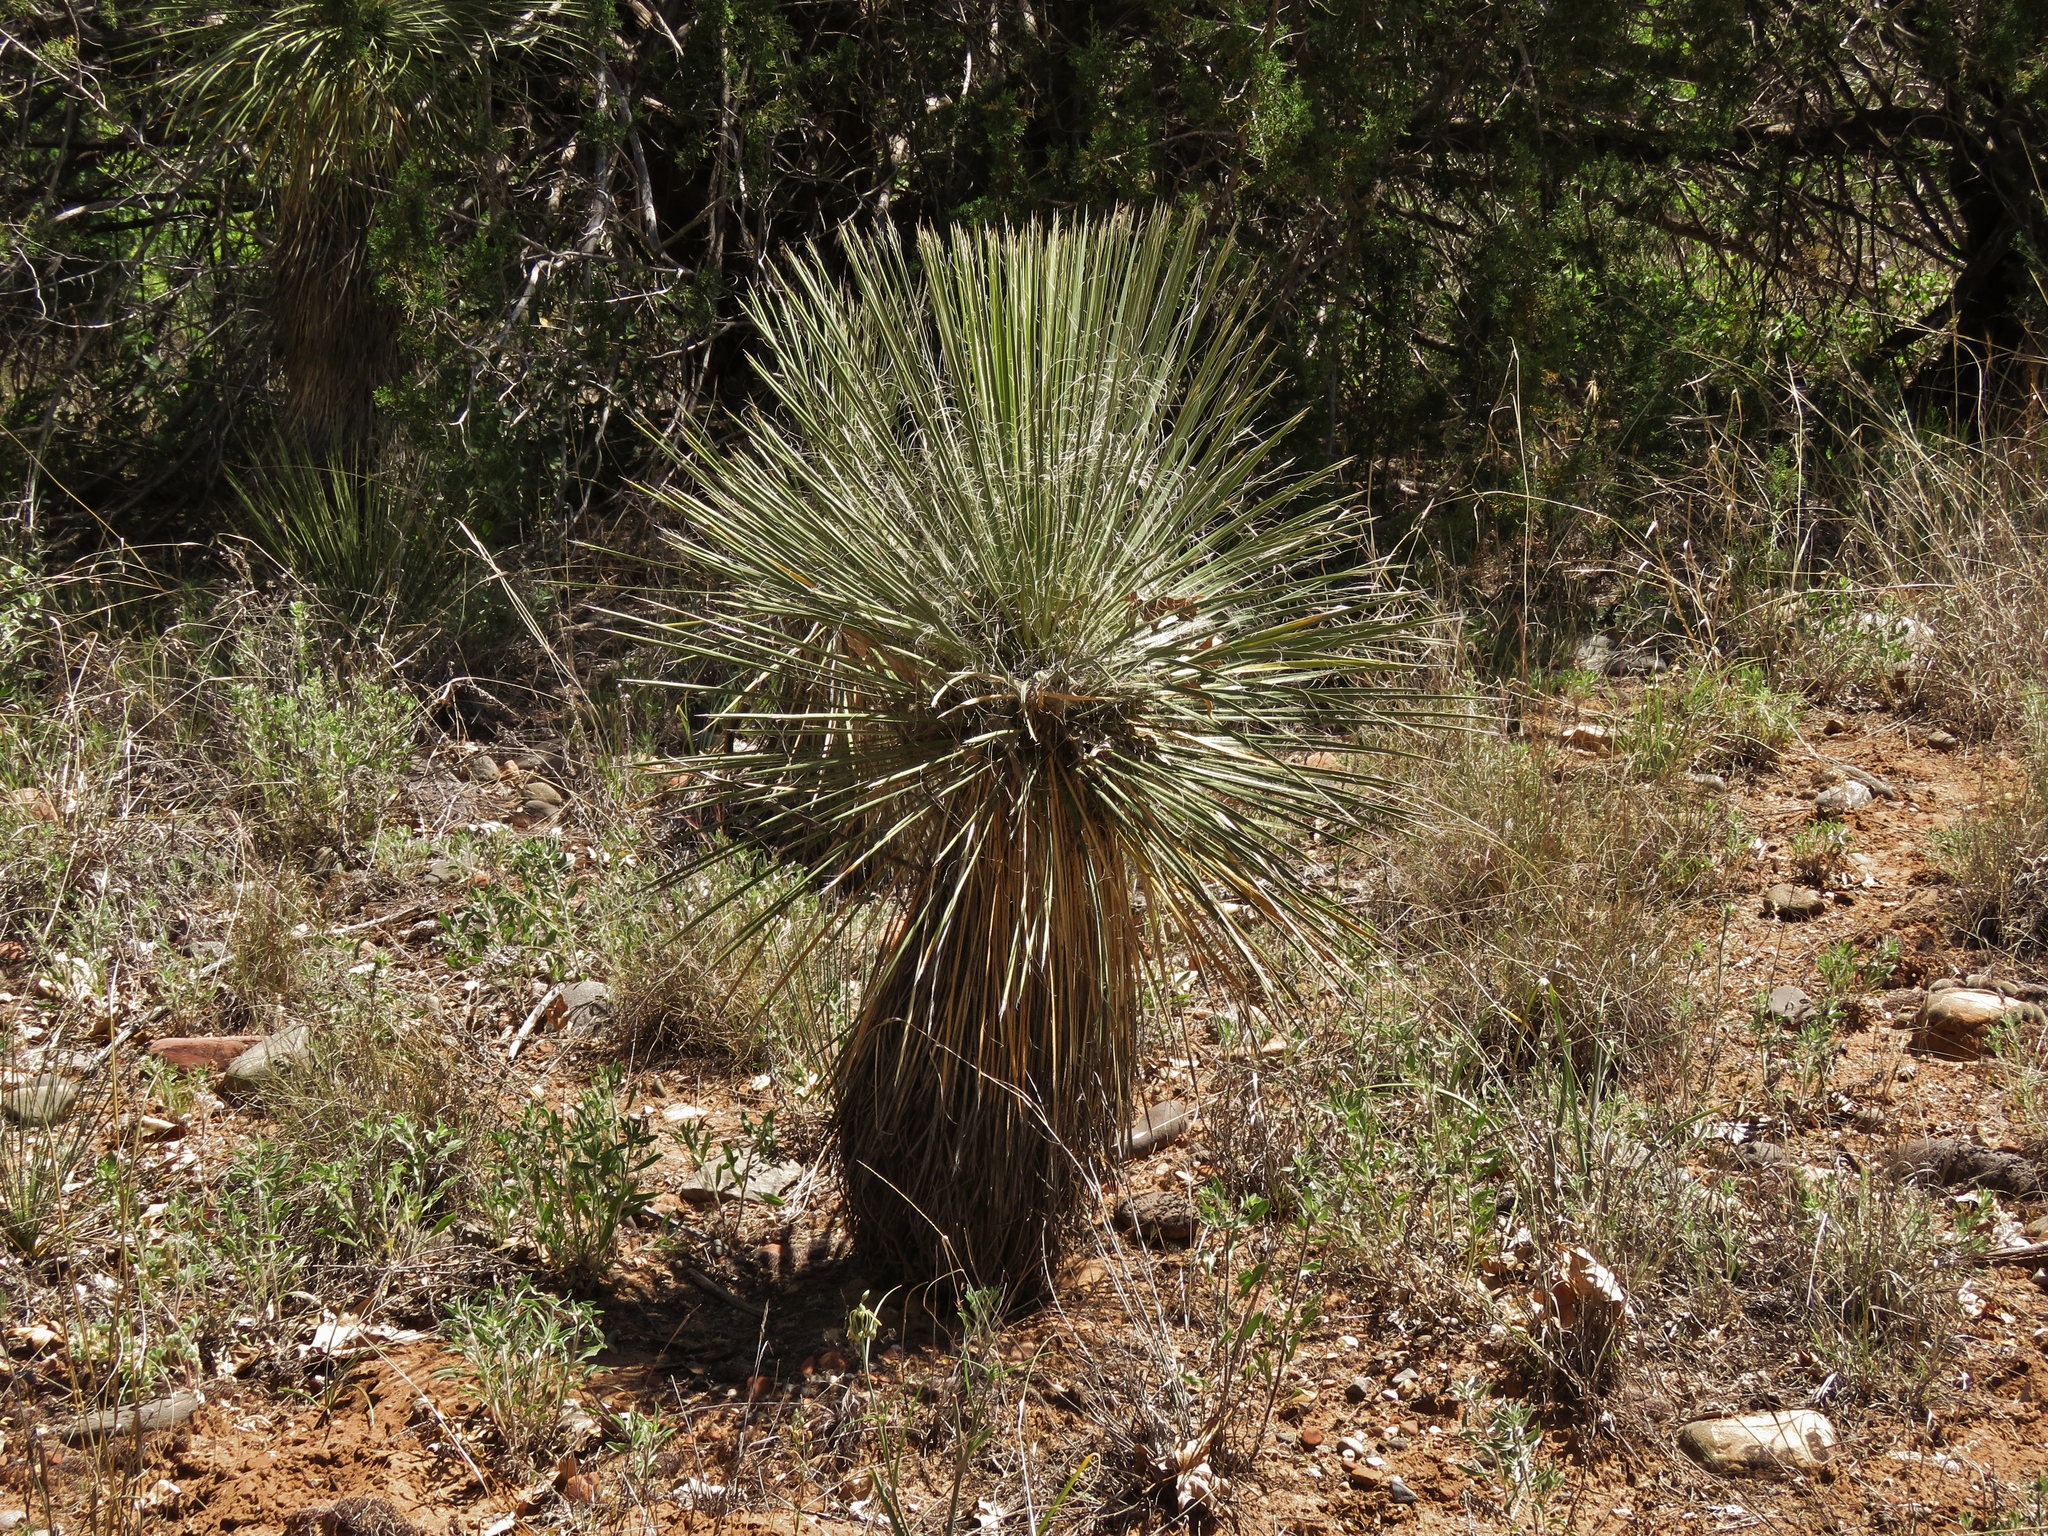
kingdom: Plantae
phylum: Tracheophyta
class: Liliopsida
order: Asparagales
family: Asparagaceae
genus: Yucca
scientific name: Yucca elata
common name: Palmella
